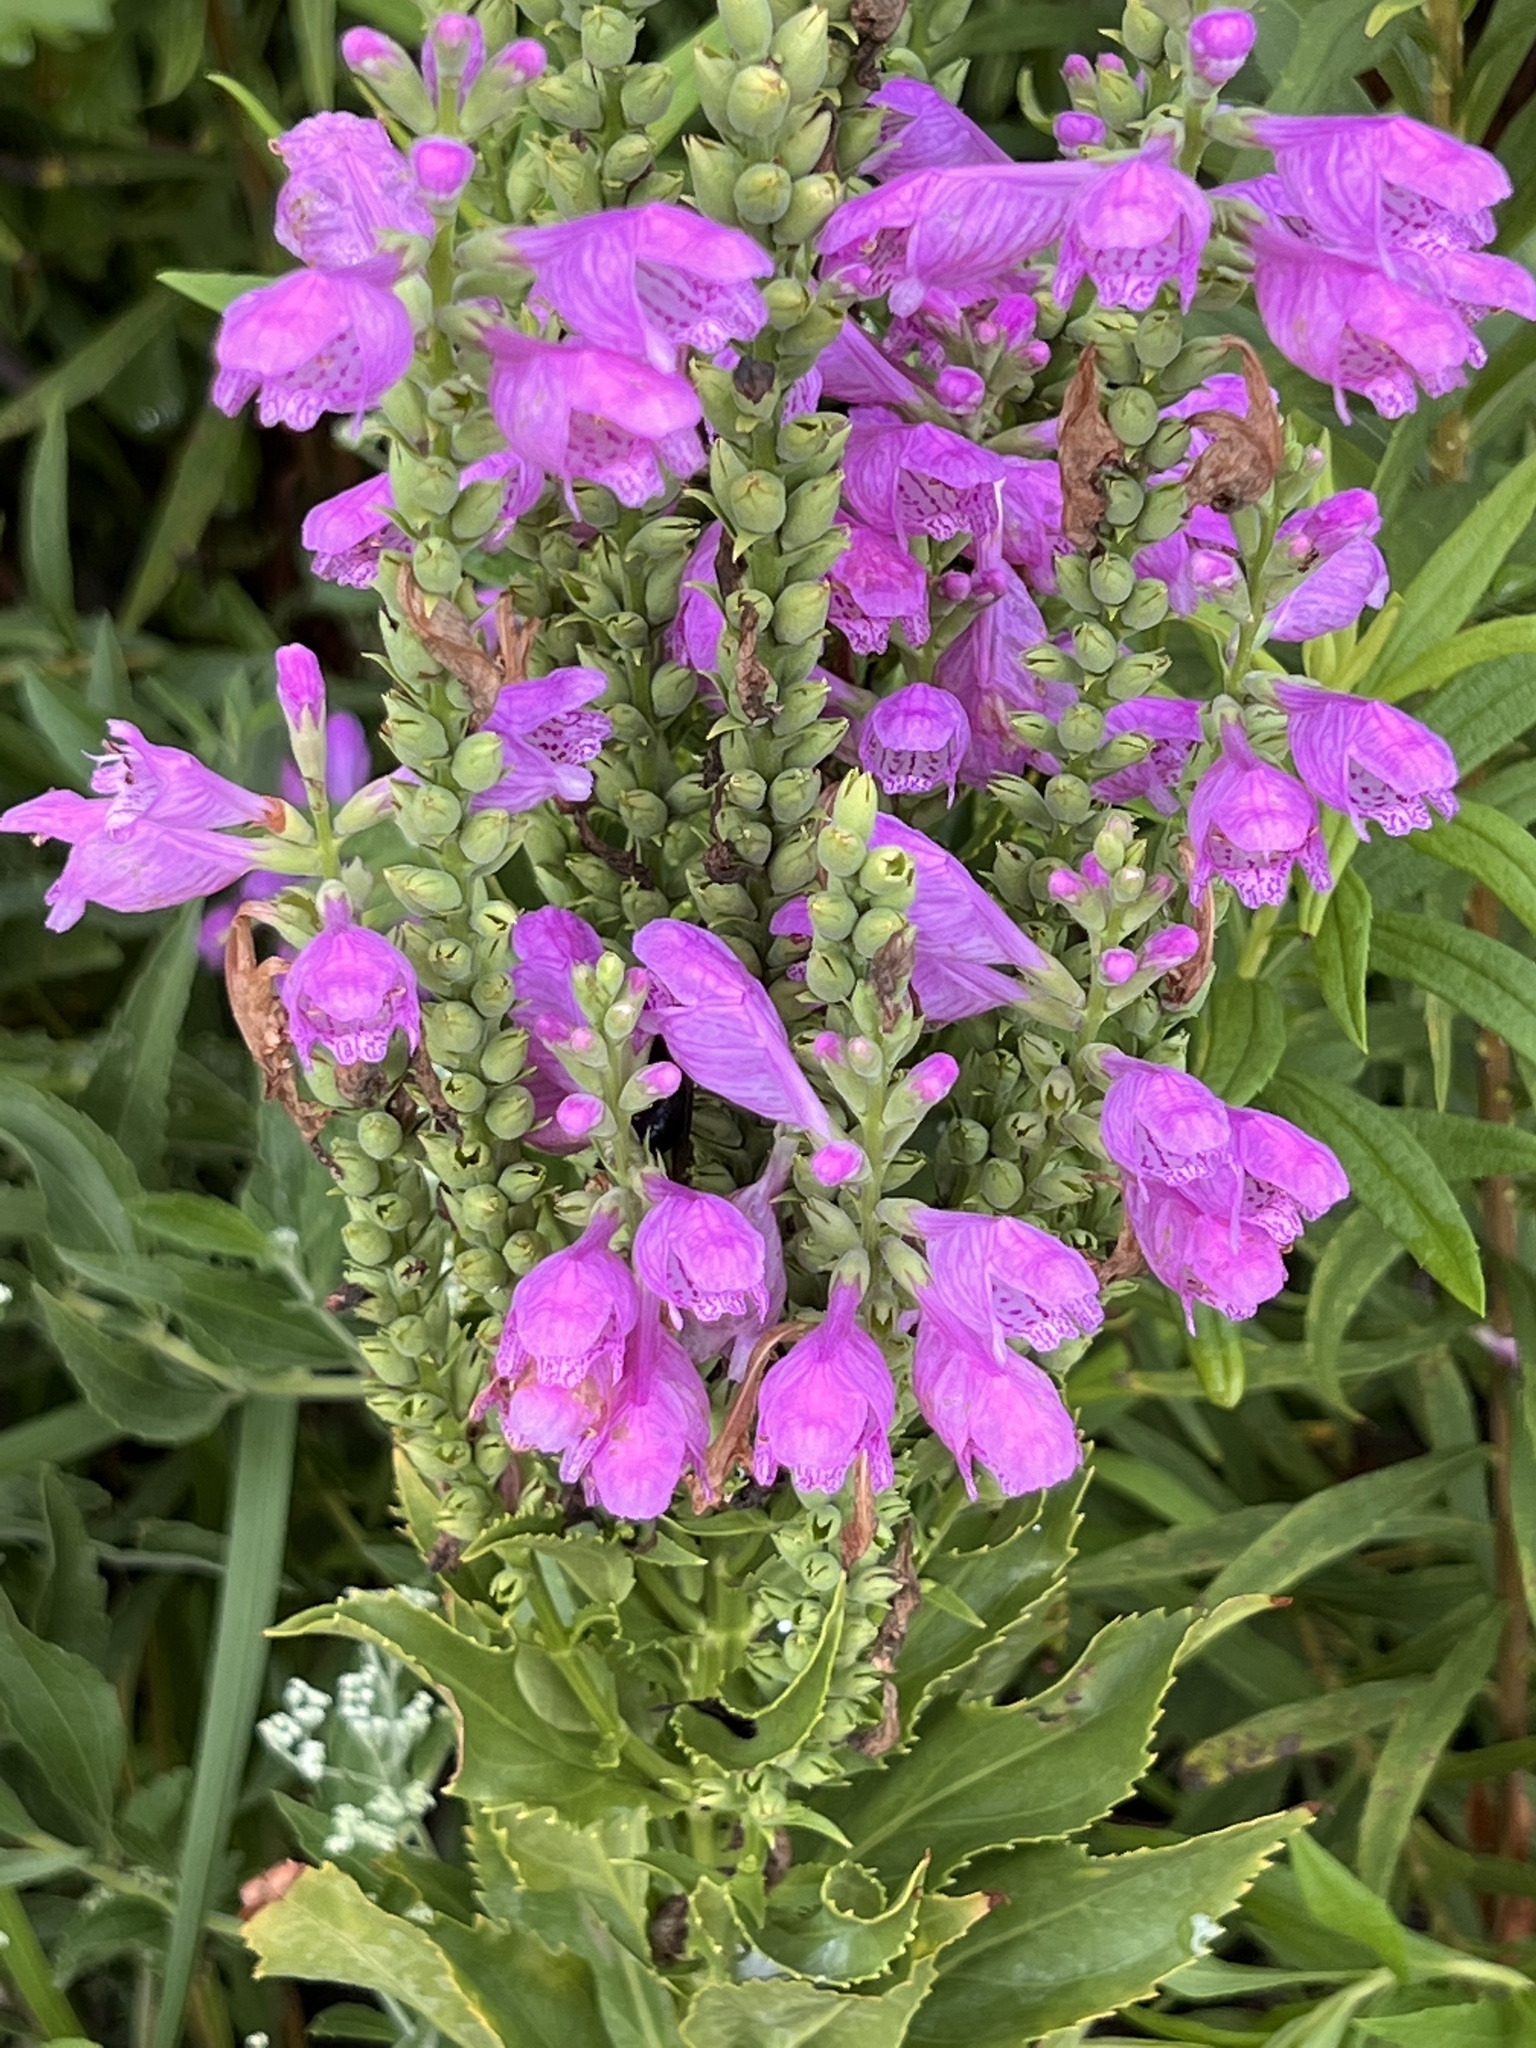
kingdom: Plantae
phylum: Tracheophyta
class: Magnoliopsida
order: Lamiales
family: Lamiaceae
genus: Physostegia
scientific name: Physostegia virginiana
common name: Obedient-plant
